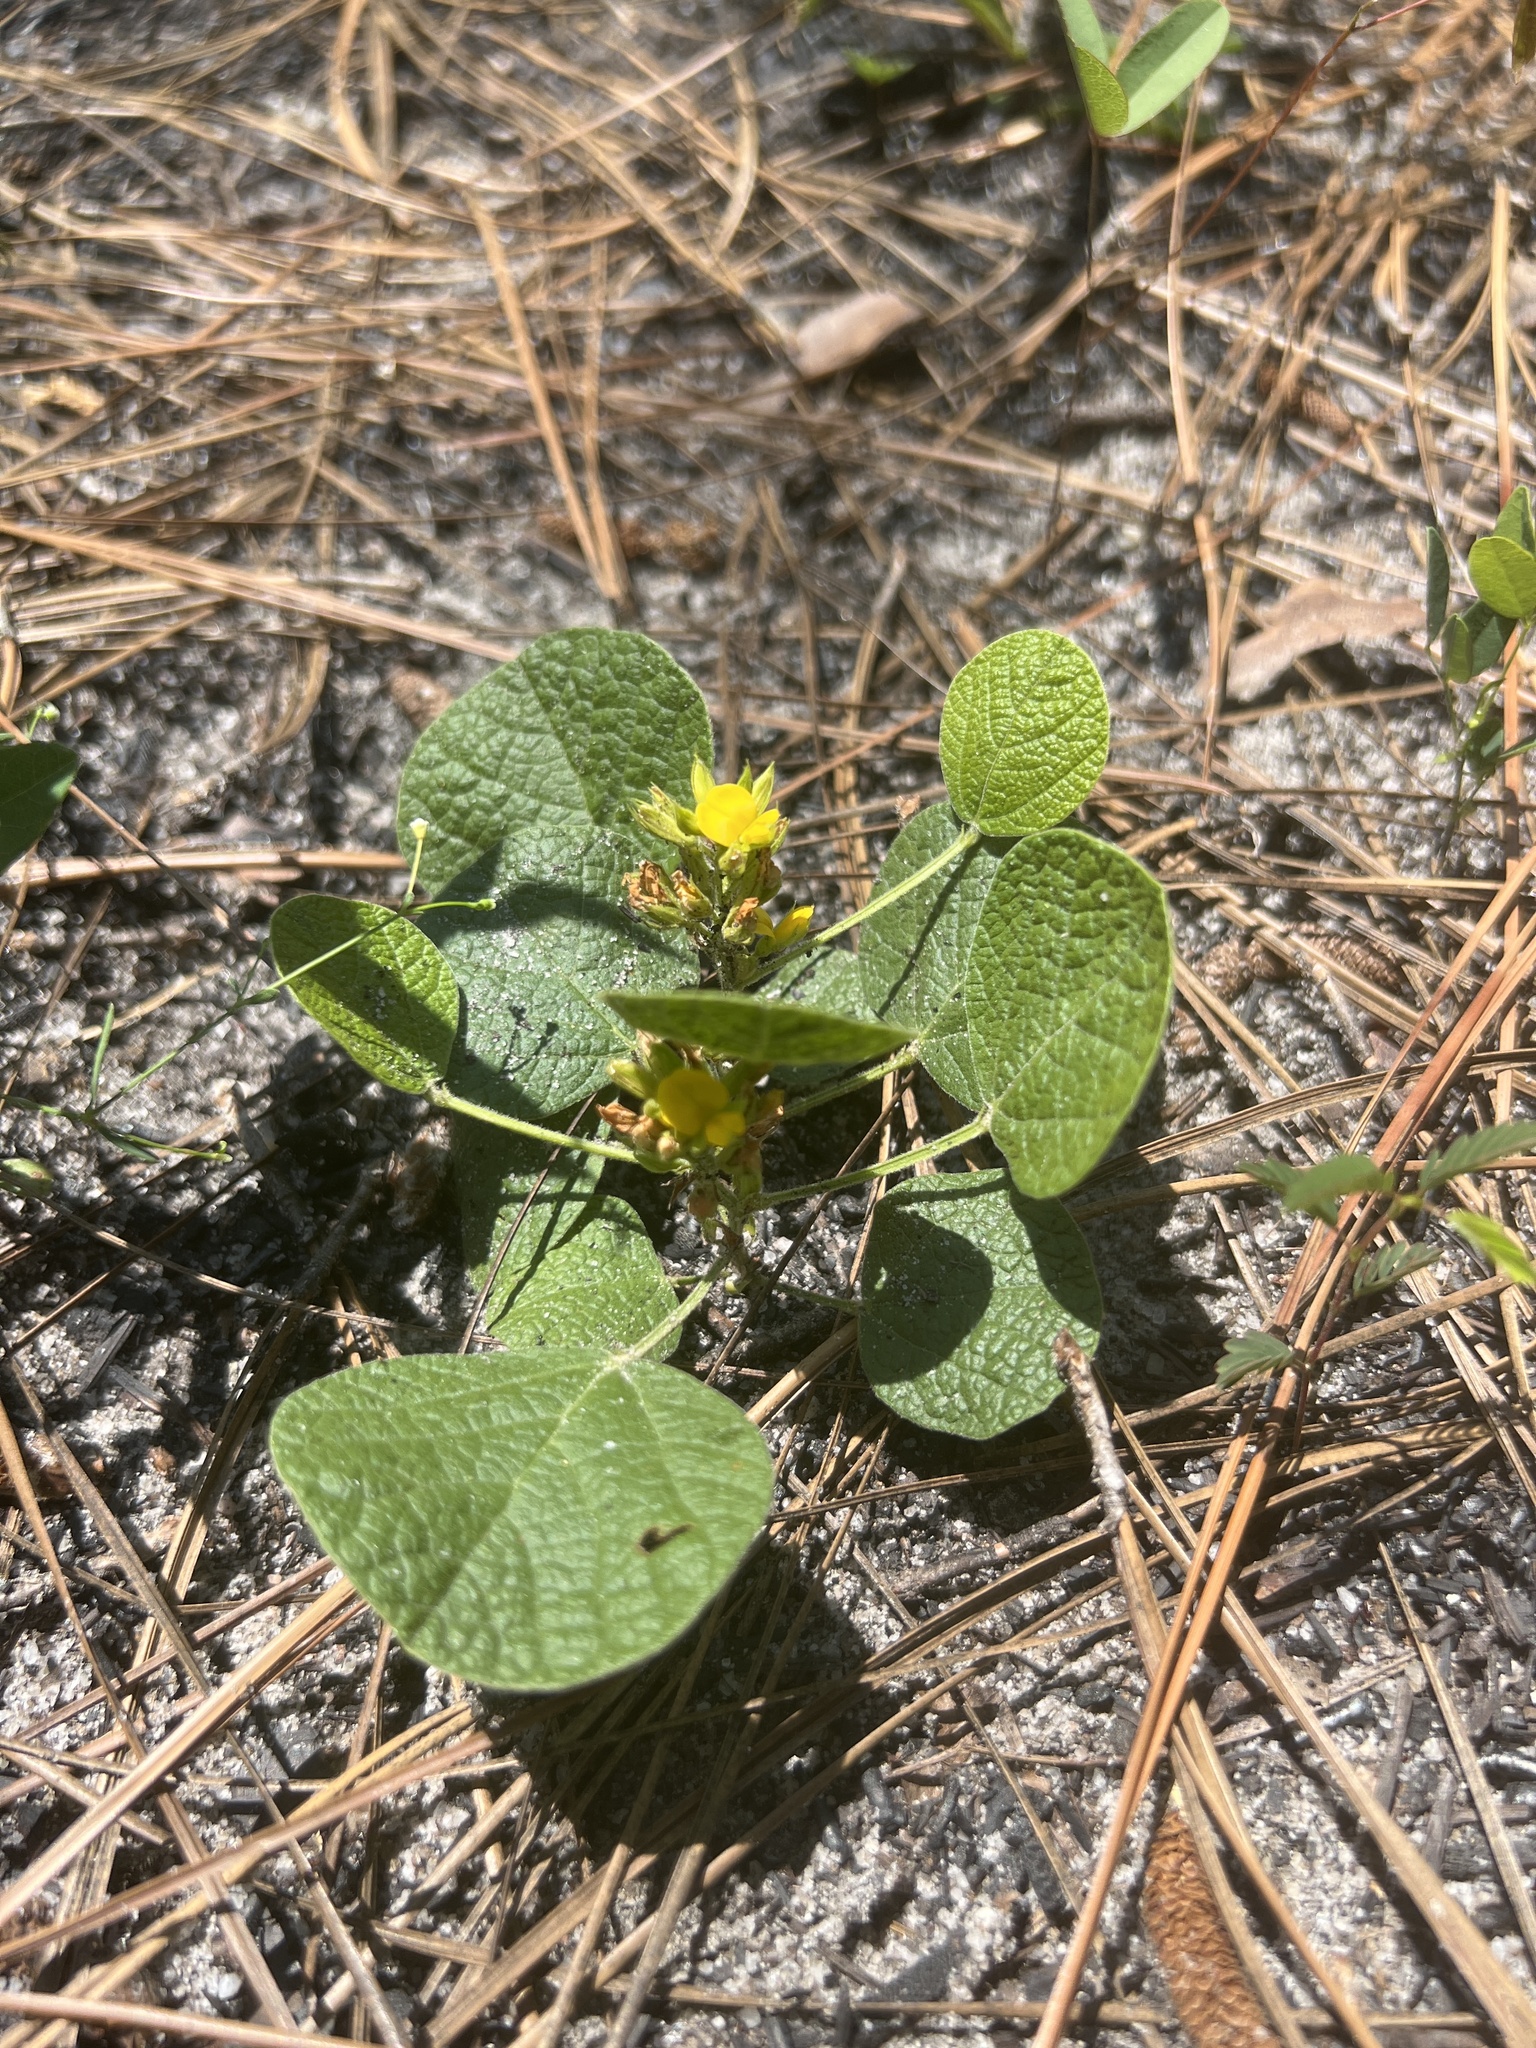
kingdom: Plantae
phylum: Tracheophyta
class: Magnoliopsida
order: Fabales
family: Fabaceae
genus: Rhynchosia
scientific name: Rhynchosia reniformis
